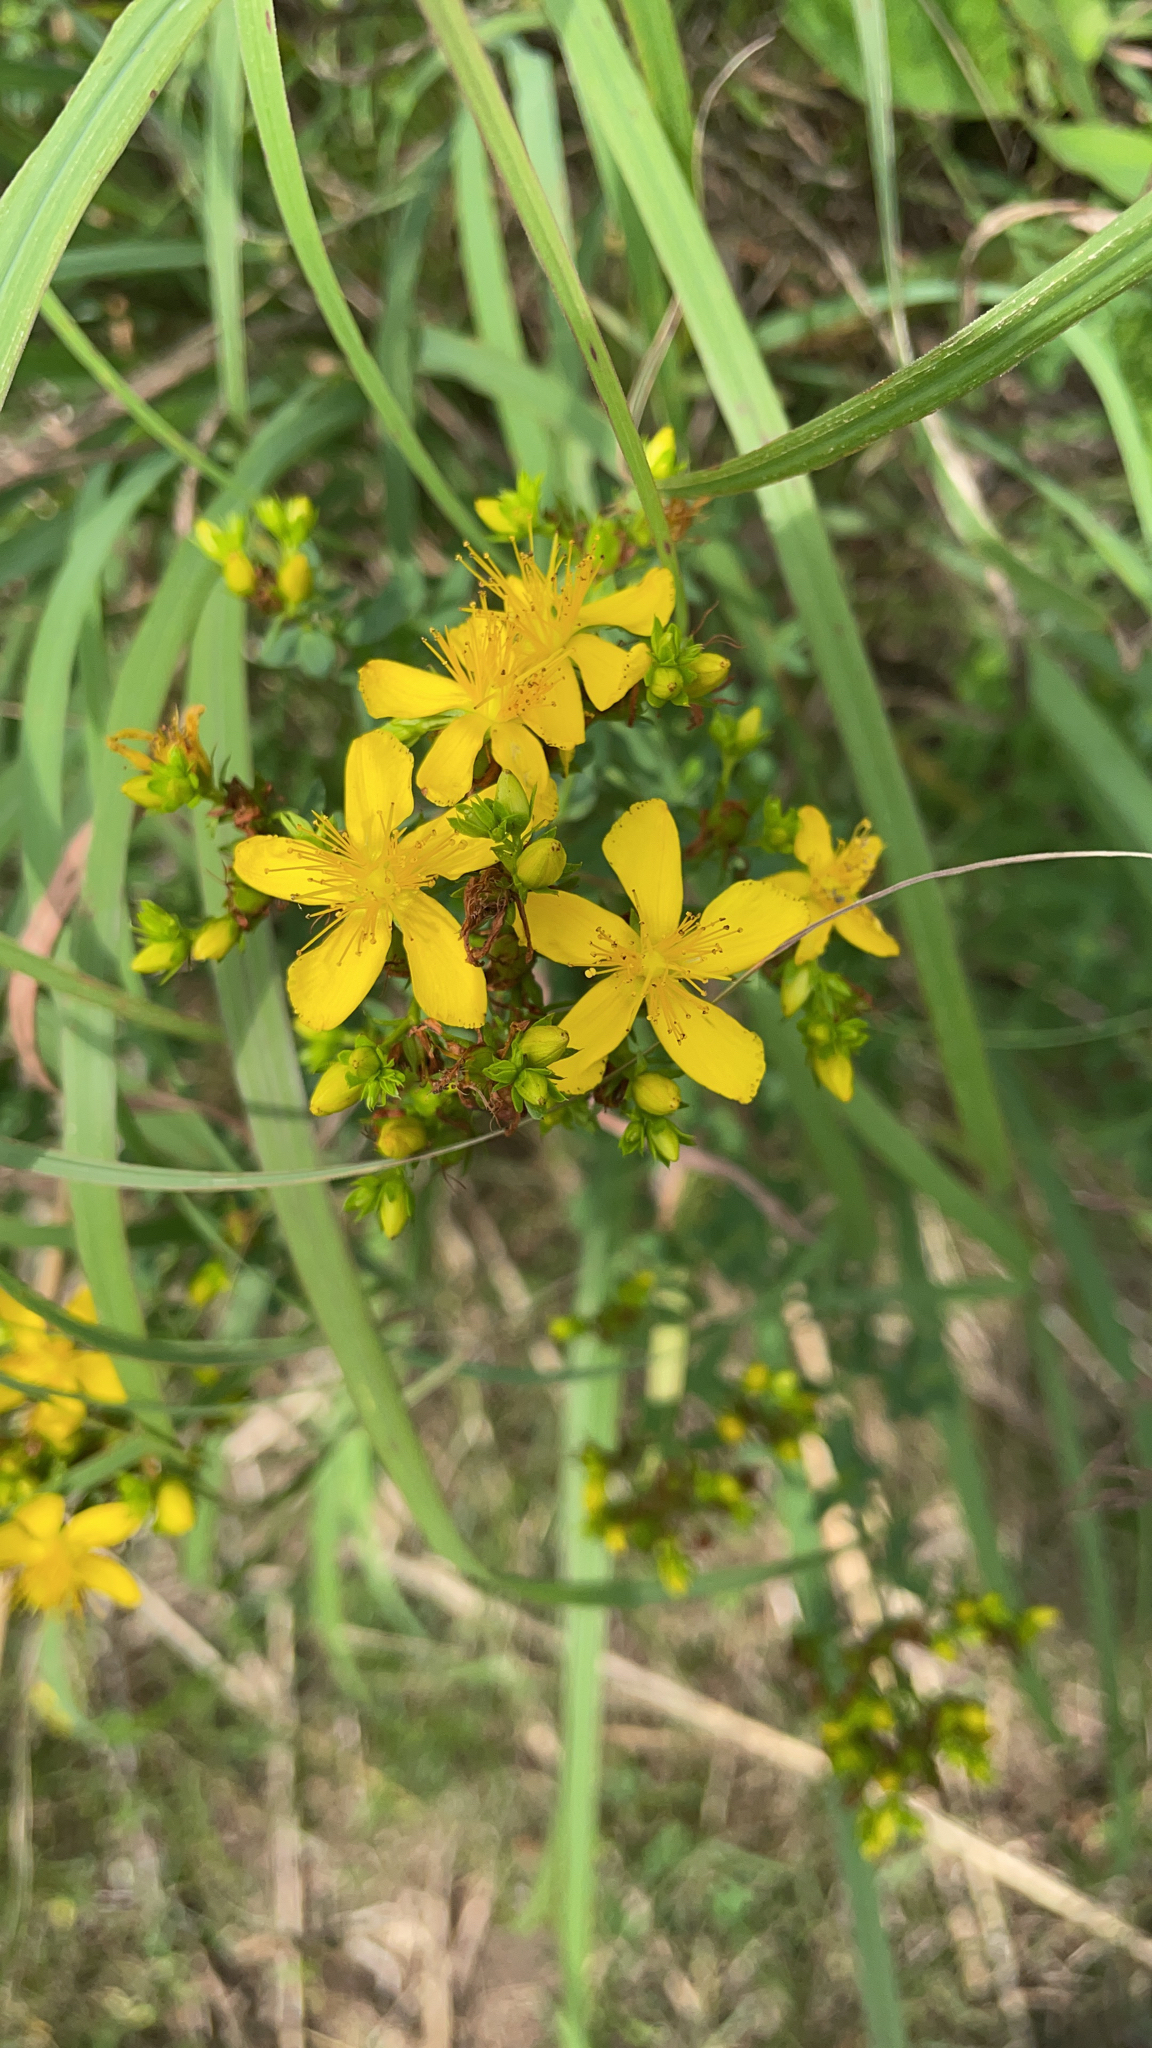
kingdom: Plantae
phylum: Tracheophyta
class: Magnoliopsida
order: Malpighiales
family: Hypericaceae
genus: Hypericum
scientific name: Hypericum perforatum
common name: Common st. johnswort
